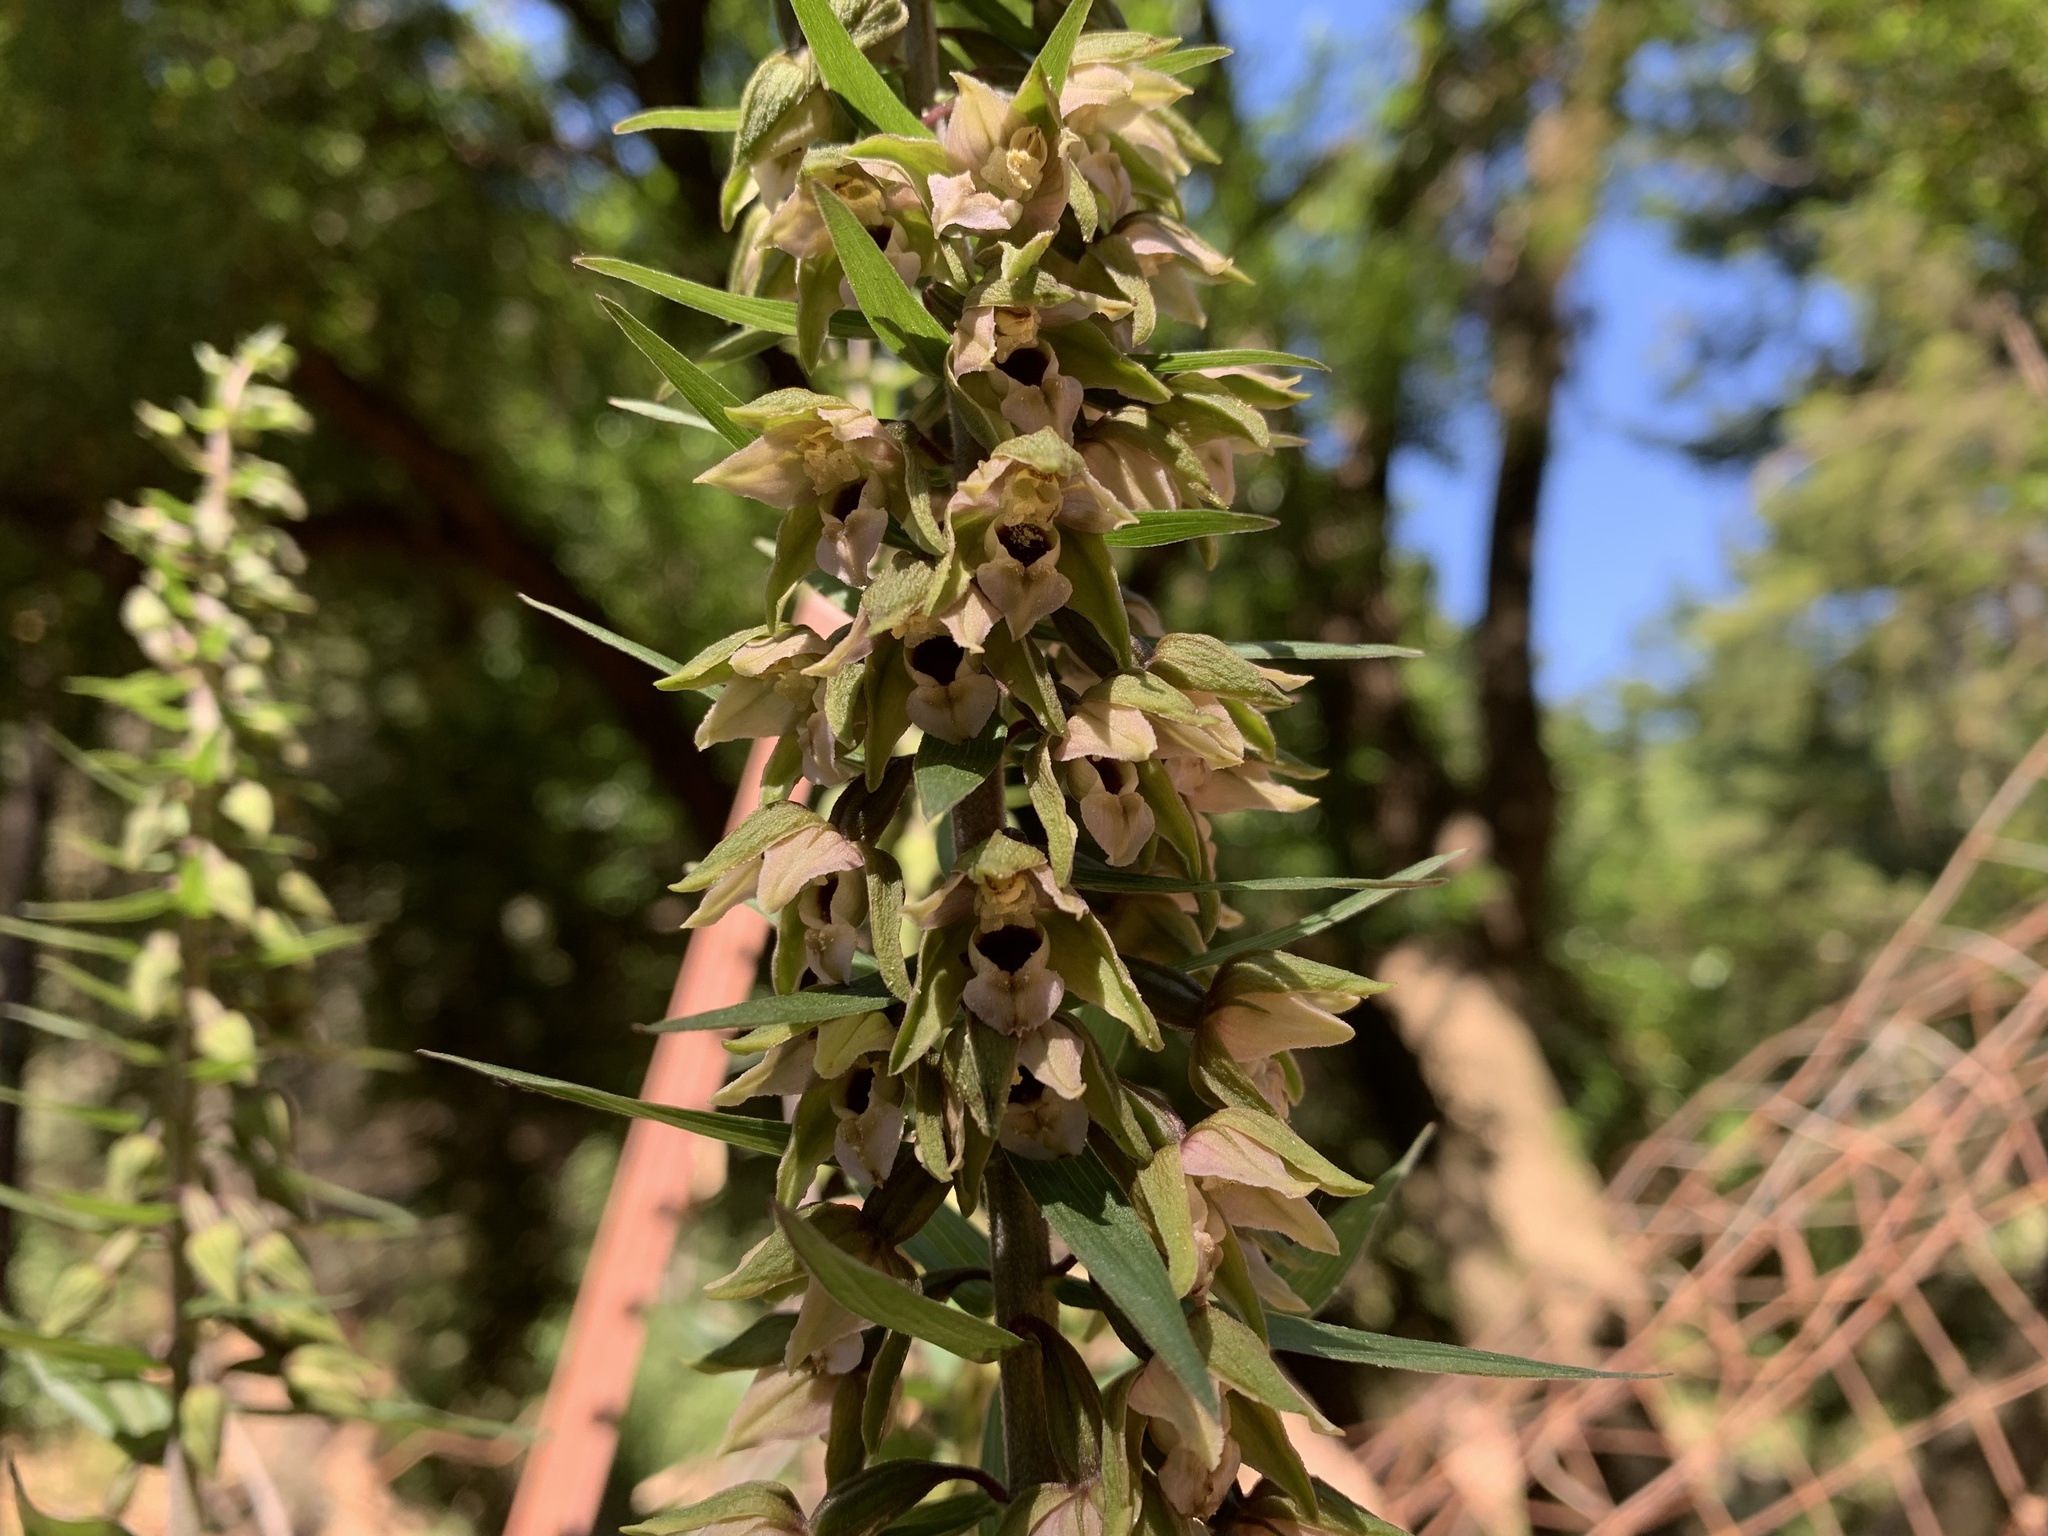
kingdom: Plantae
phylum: Tracheophyta
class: Liliopsida
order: Asparagales
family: Orchidaceae
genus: Epipactis
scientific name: Epipactis helleborine
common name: Broad-leaved helleborine
